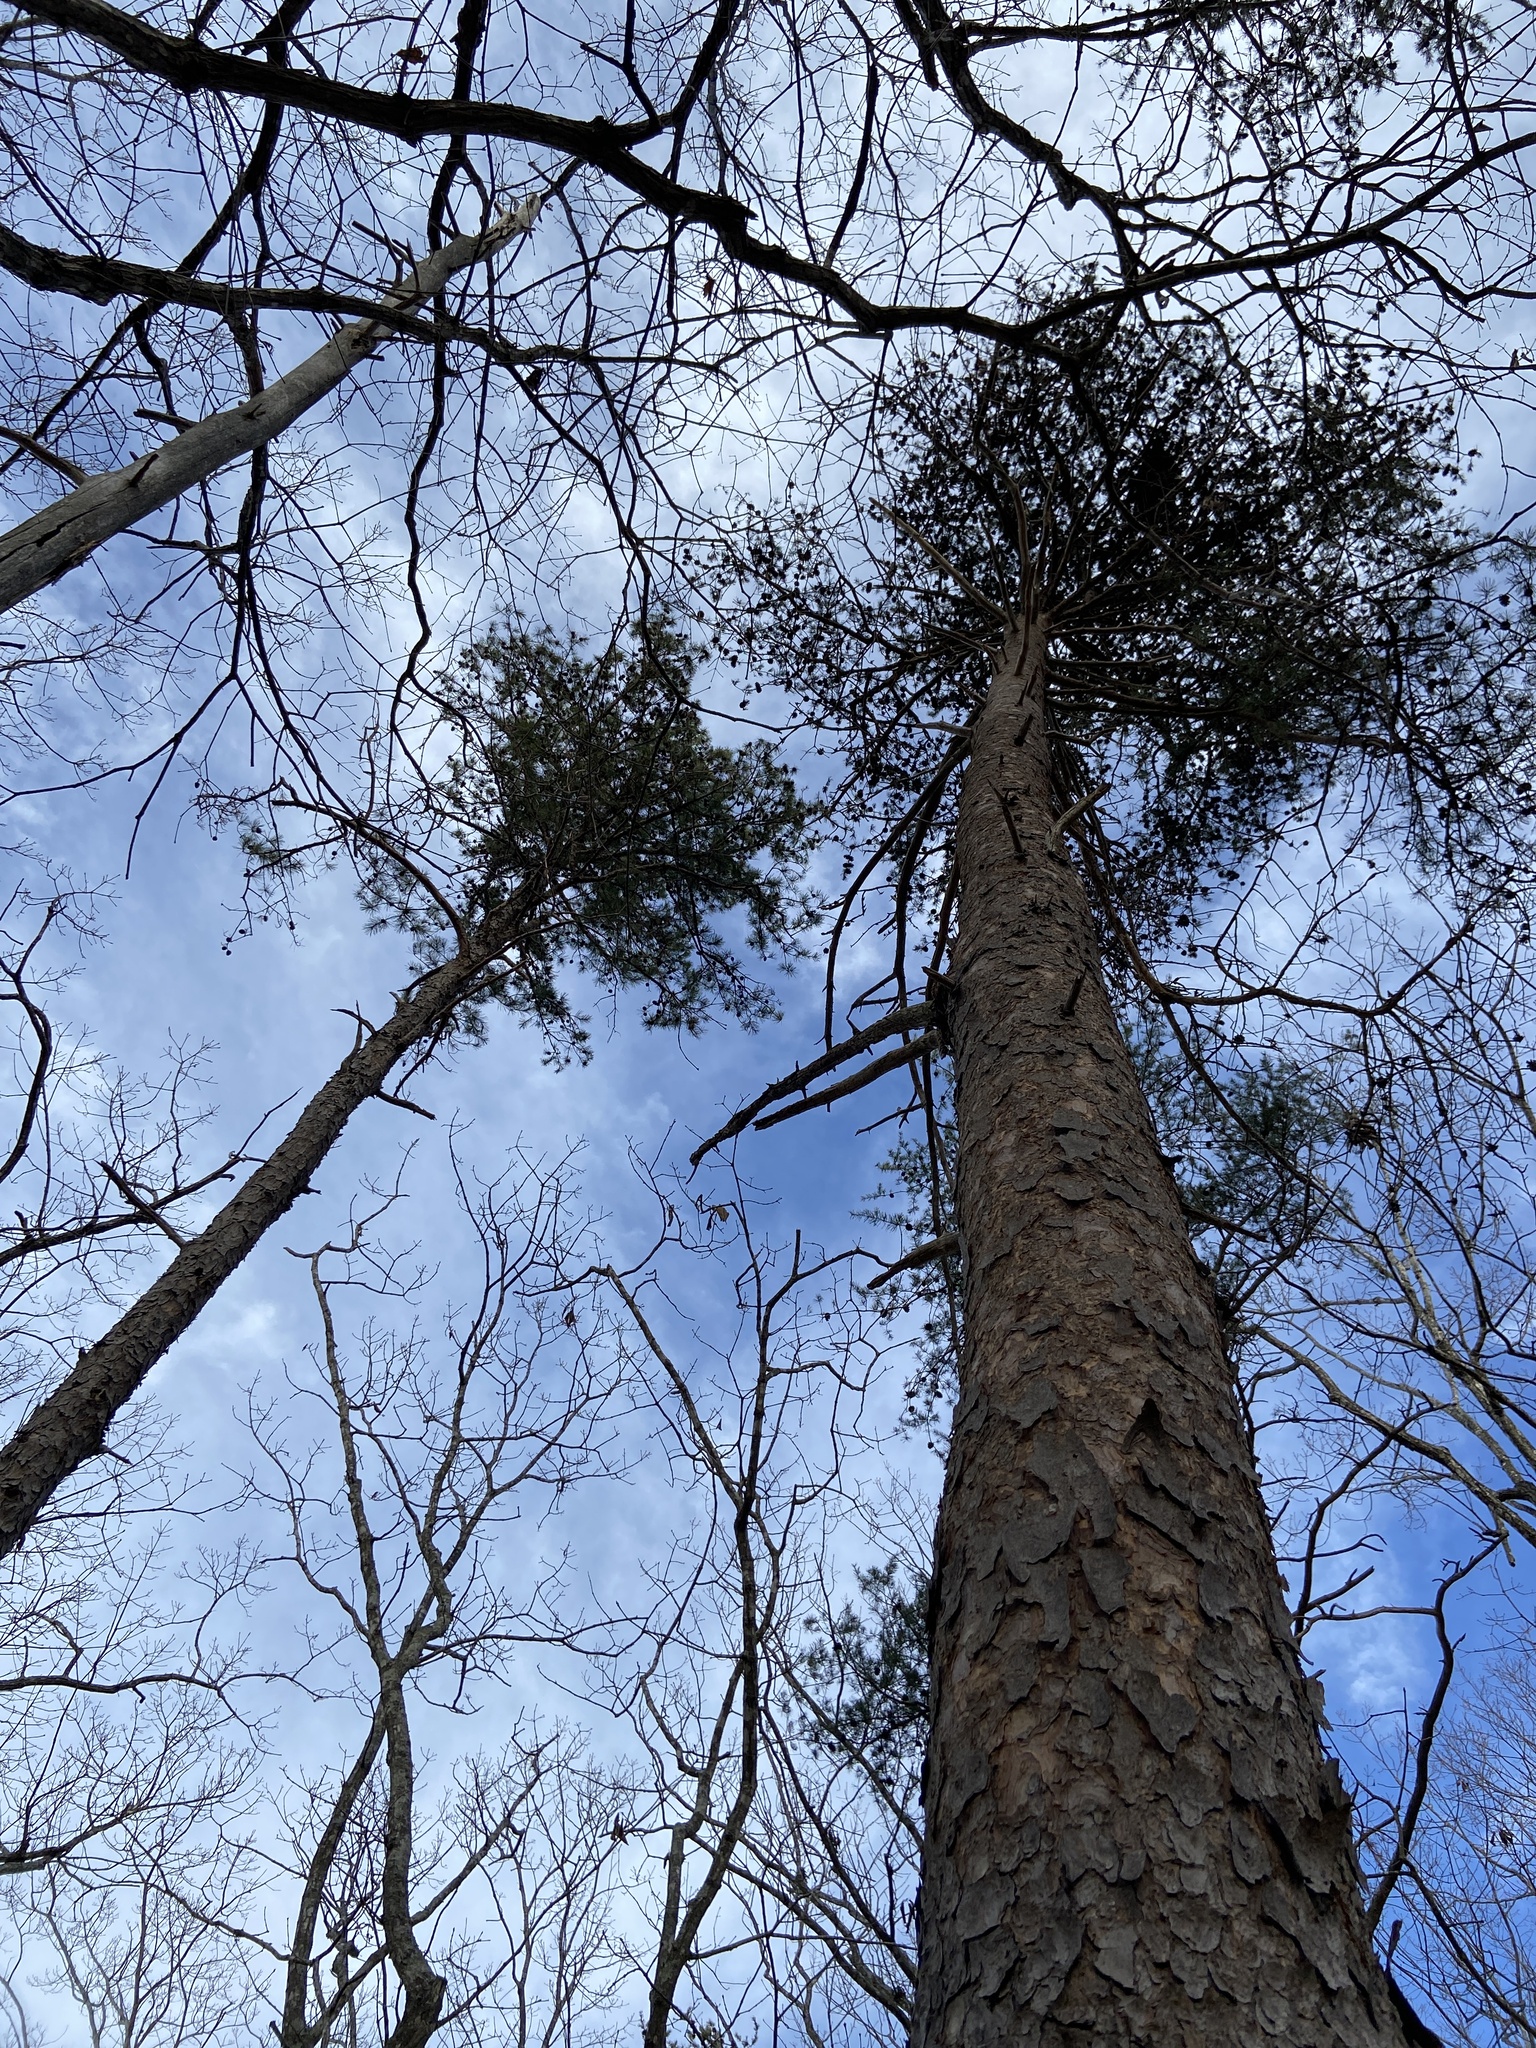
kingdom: Plantae
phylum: Tracheophyta
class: Pinopsida
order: Pinales
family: Pinaceae
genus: Pinus
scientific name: Pinus virginiana
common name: Scrub pine
